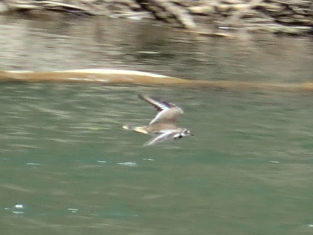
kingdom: Animalia
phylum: Chordata
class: Aves
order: Charadriiformes
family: Charadriidae
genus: Charadrius
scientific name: Charadrius vociferus
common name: Killdeer
